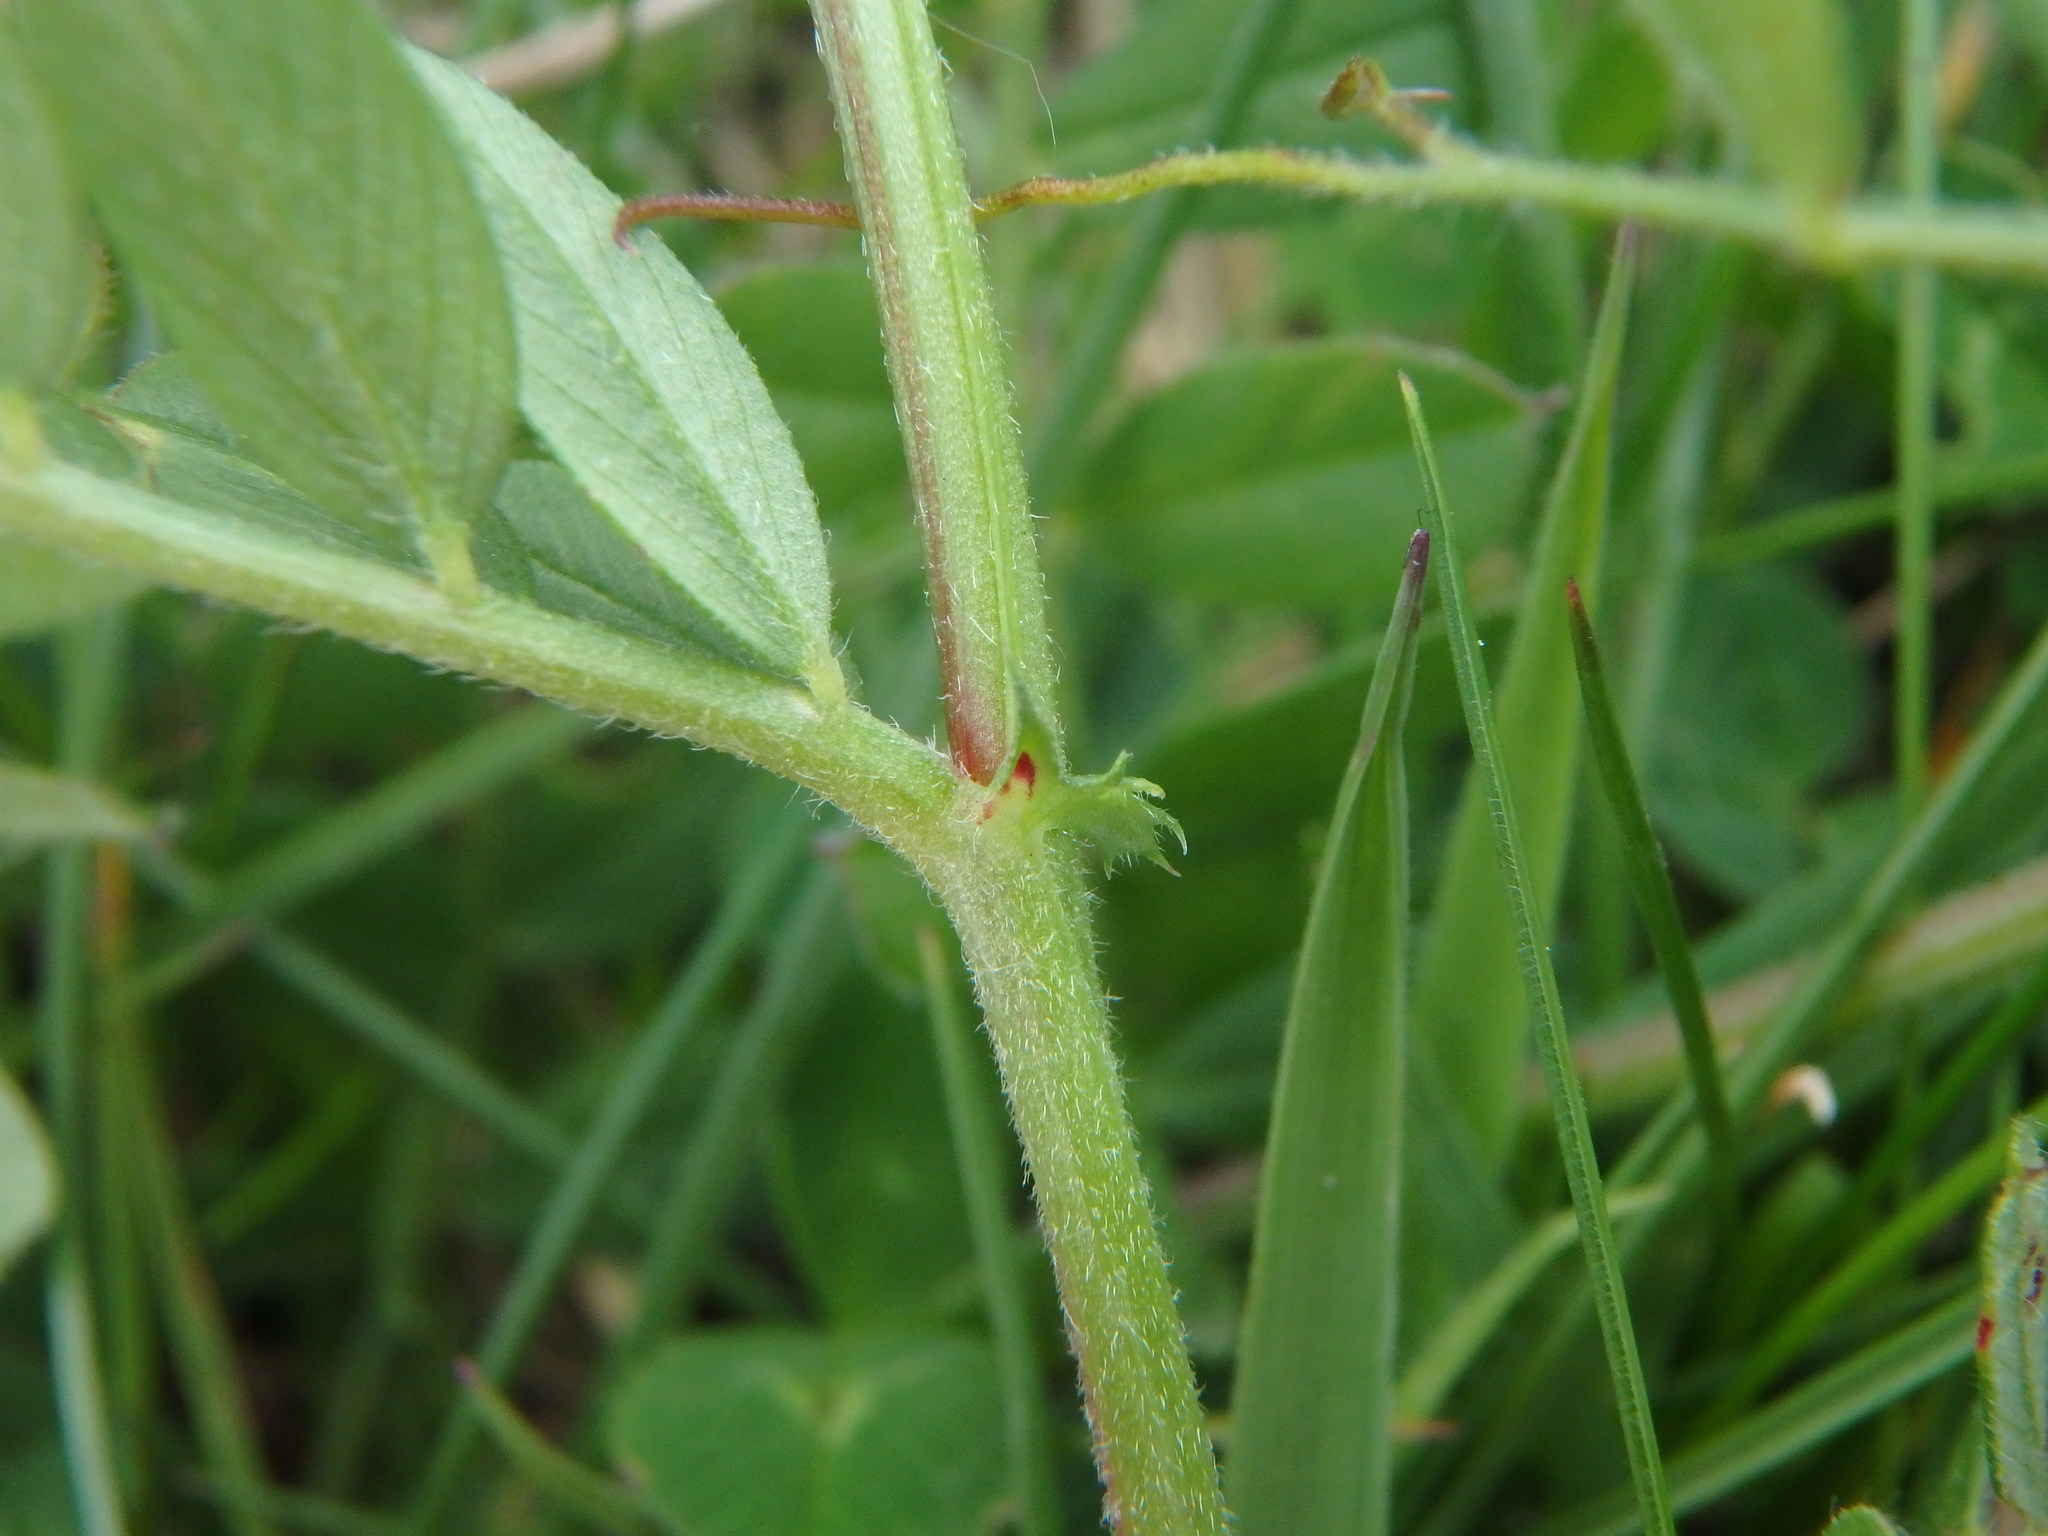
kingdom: Plantae
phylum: Tracheophyta
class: Magnoliopsida
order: Fabales
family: Fabaceae
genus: Vicia
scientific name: Vicia sativa
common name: Garden vetch
